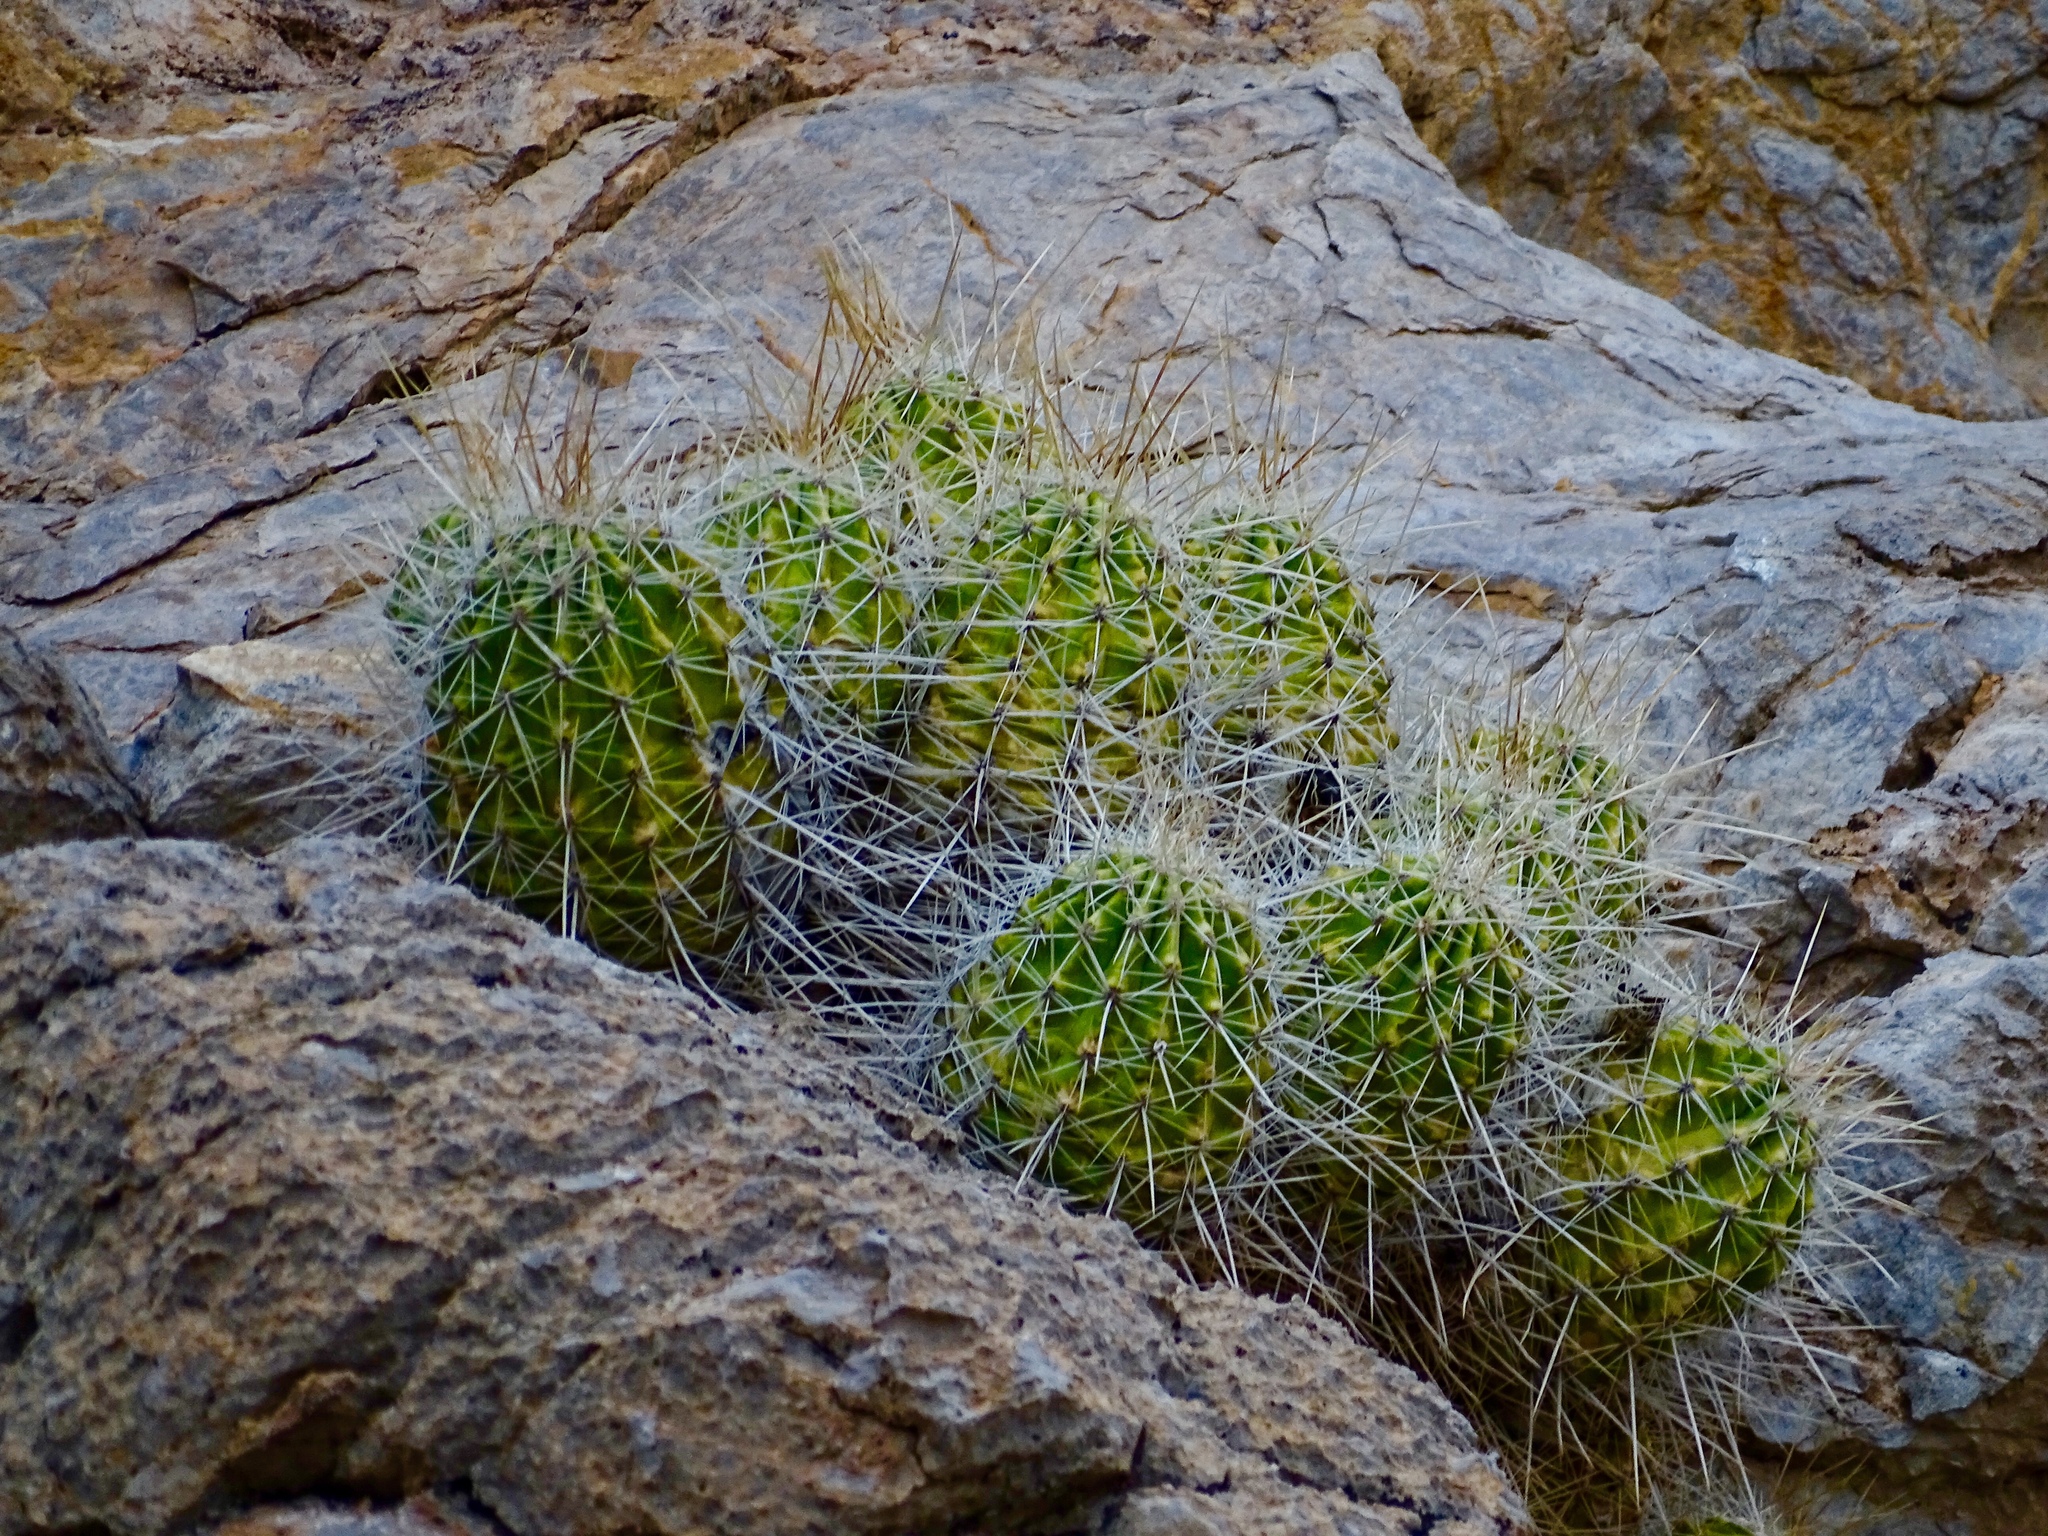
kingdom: Plantae
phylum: Tracheophyta
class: Magnoliopsida
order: Caryophyllales
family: Cactaceae
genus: Echinocereus
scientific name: Echinocereus stramineus
